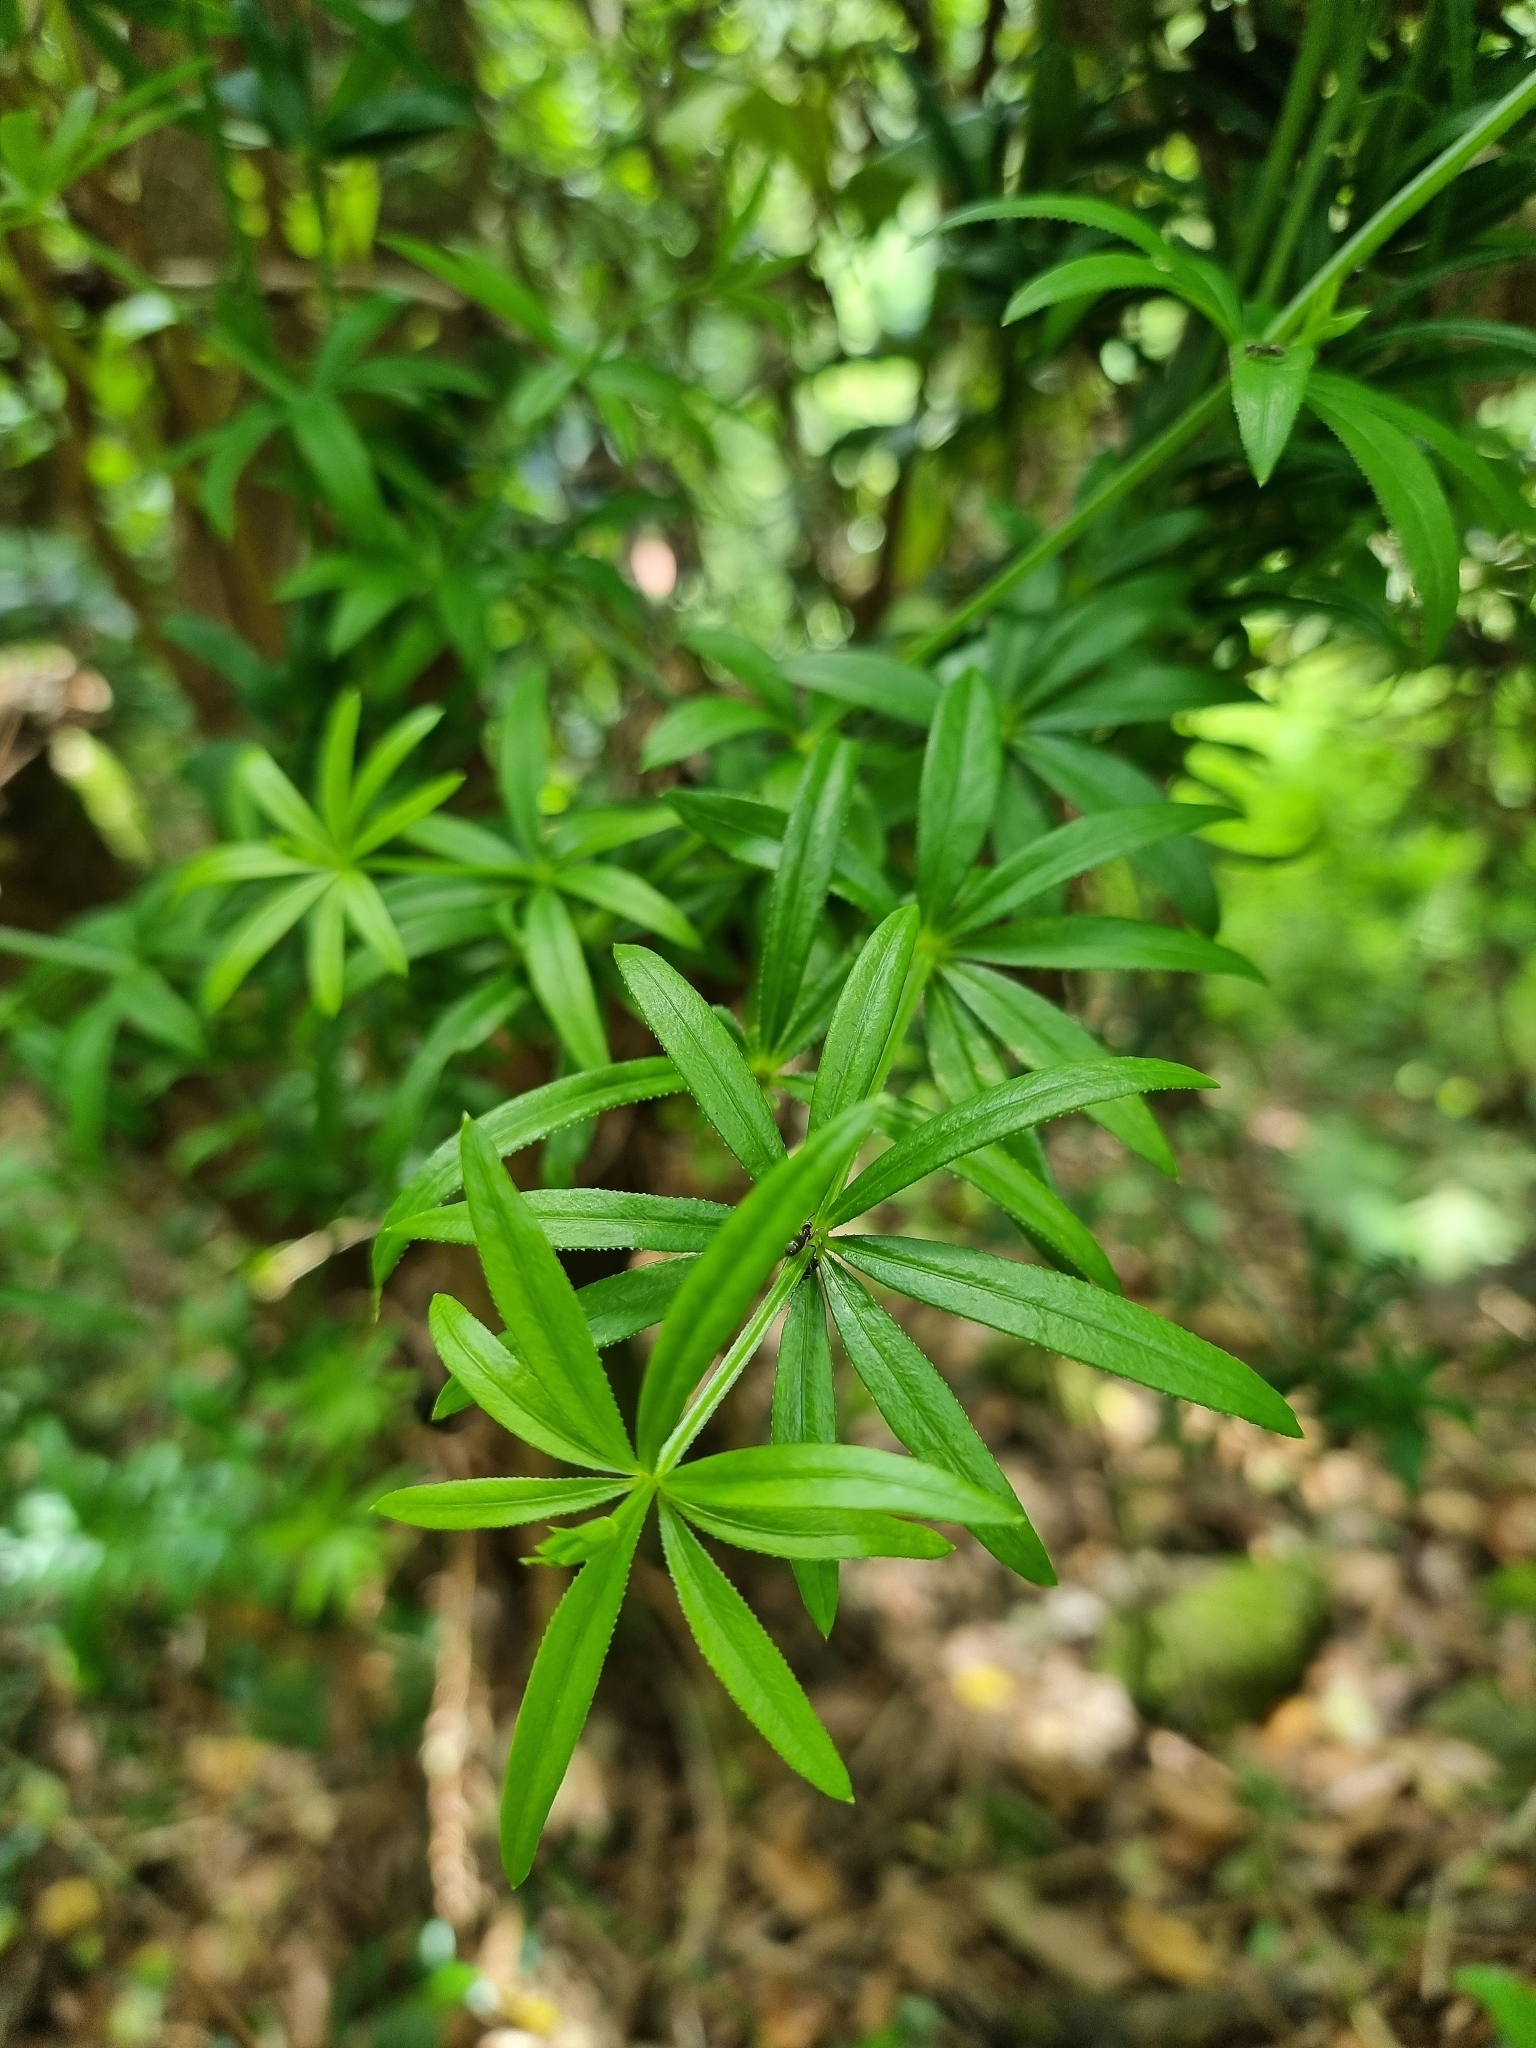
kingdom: Plantae
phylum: Tracheophyta
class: Magnoliopsida
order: Gentianales
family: Rubiaceae
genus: Rubia
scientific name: Rubia occidens
